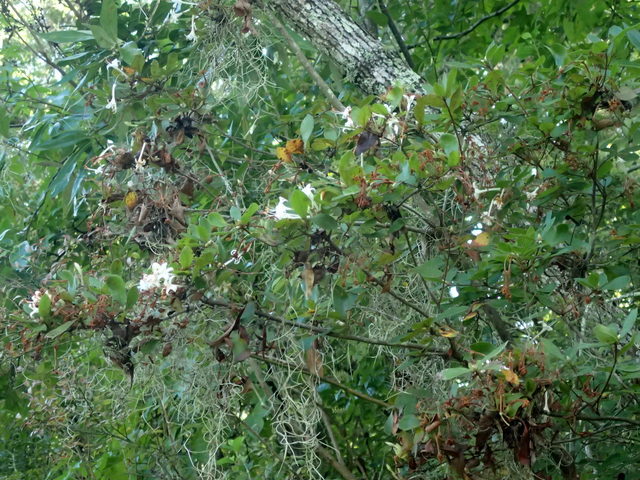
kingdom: Plantae
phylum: Tracheophyta
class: Magnoliopsida
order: Ericales
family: Ericaceae
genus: Rhododendron
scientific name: Rhododendron serrulatum
